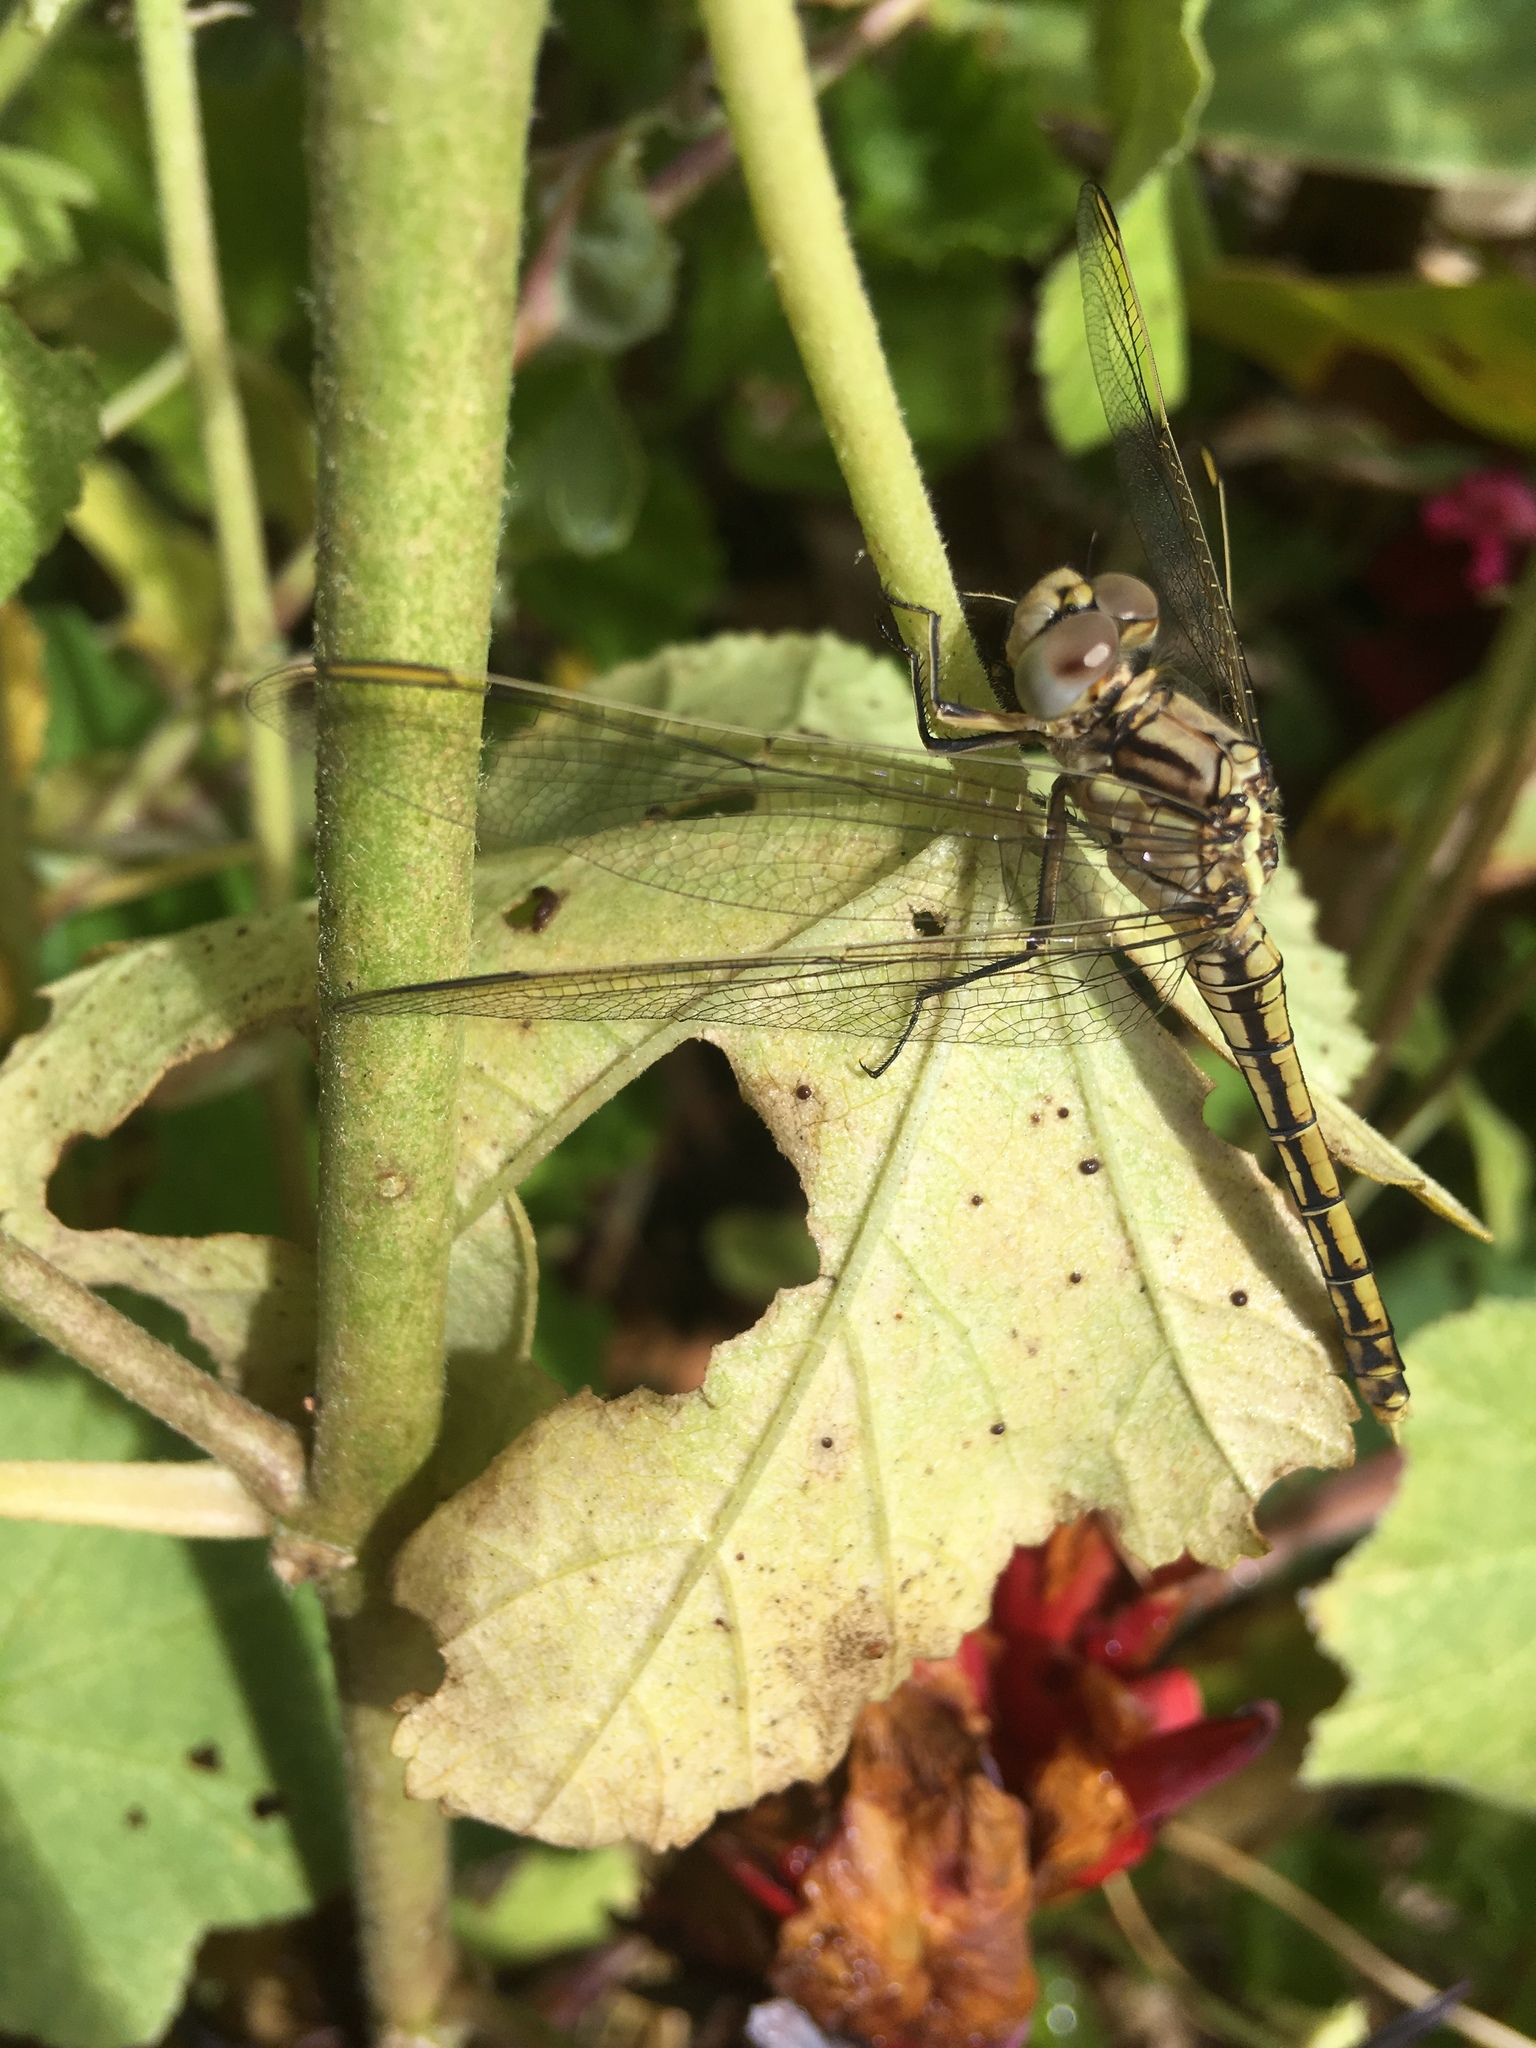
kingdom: Animalia
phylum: Arthropoda
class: Insecta
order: Odonata
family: Libellulidae
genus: Orthetrum
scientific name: Orthetrum caledonicum
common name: Blue skimmer
